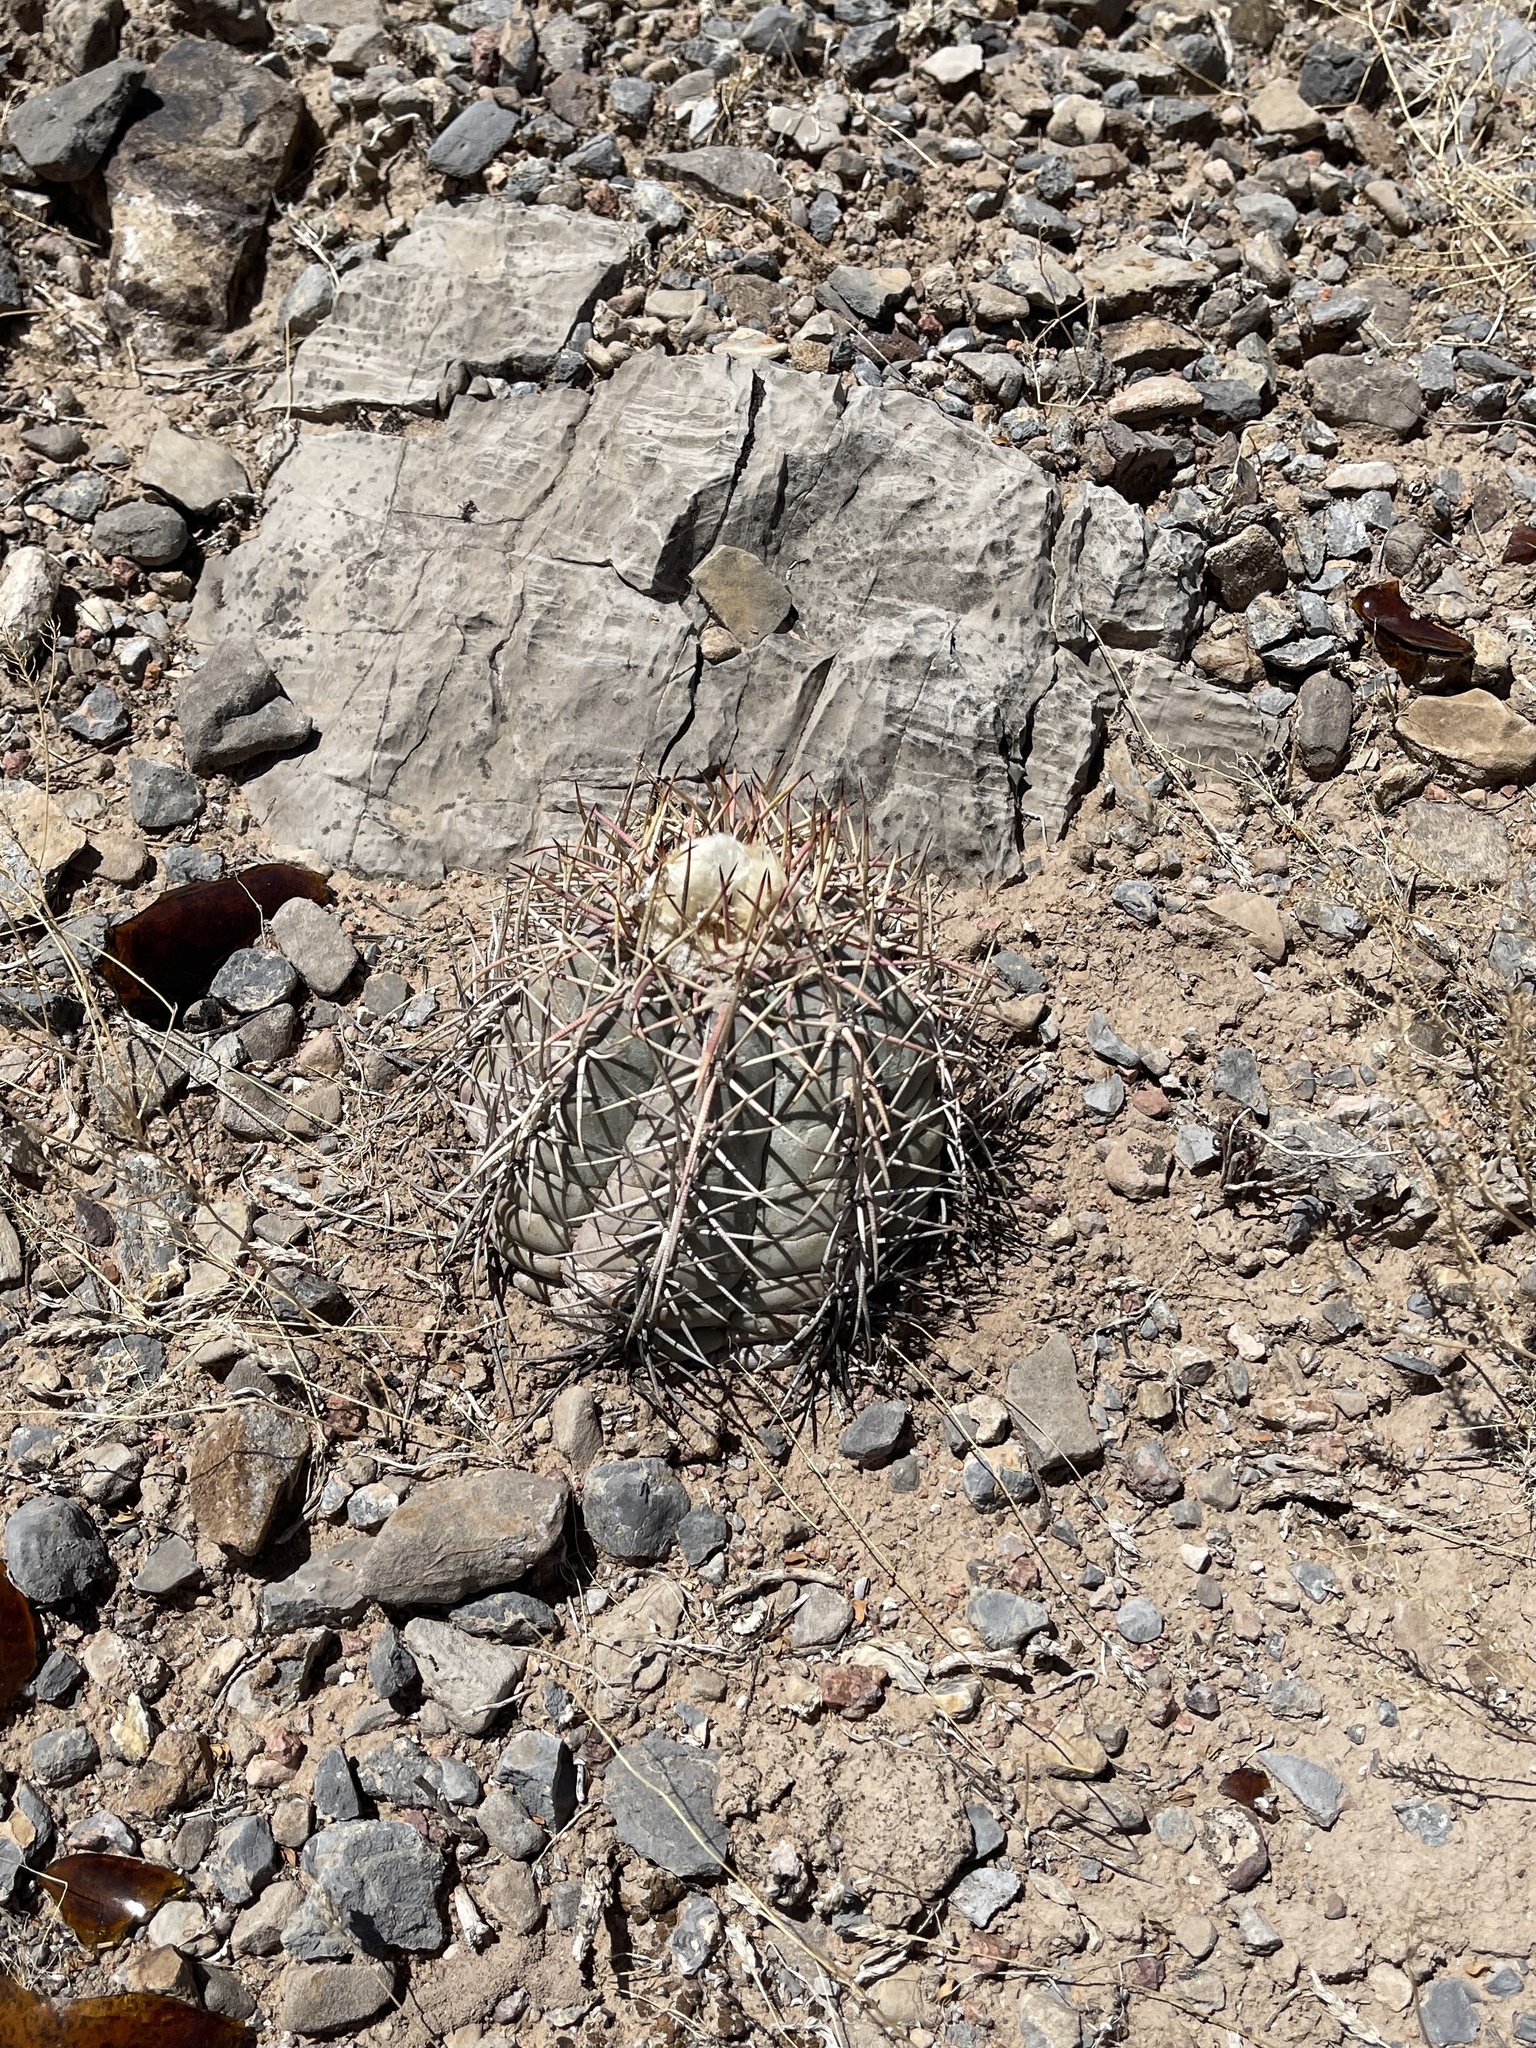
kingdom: Plantae
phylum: Tracheophyta
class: Magnoliopsida
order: Caryophyllales
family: Cactaceae
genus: Echinocactus
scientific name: Echinocactus horizonthalonius
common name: Devilshead
